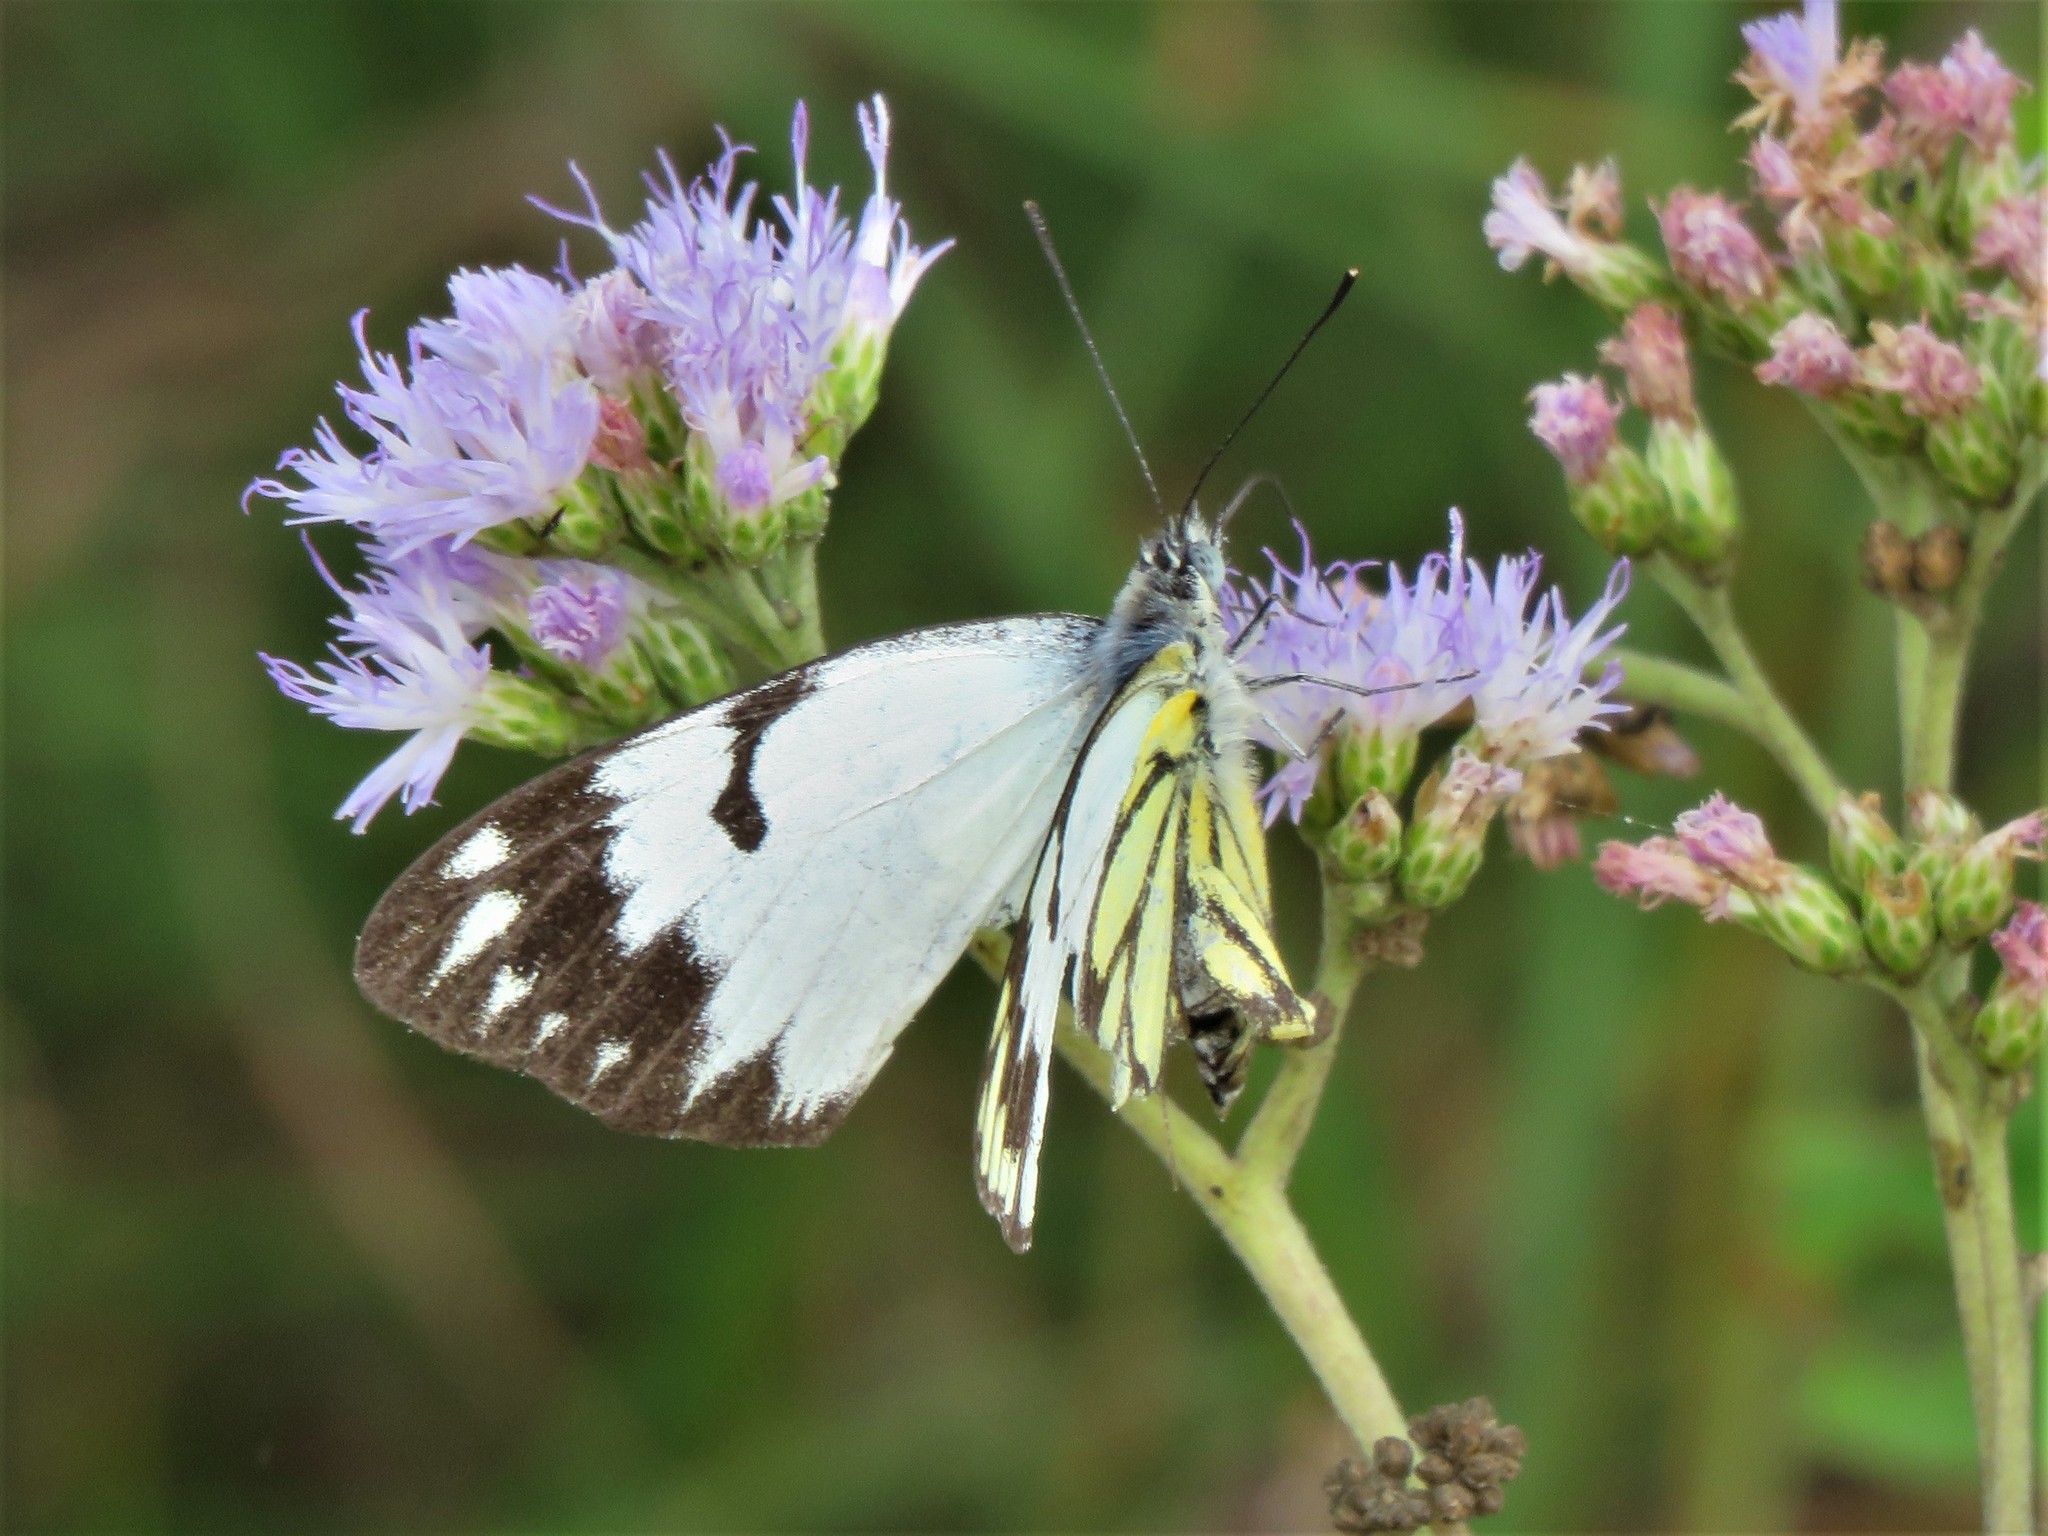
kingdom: Animalia
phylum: Arthropoda
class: Insecta
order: Lepidoptera
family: Pieridae
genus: Belenois
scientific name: Belenois creona
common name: African caper white
